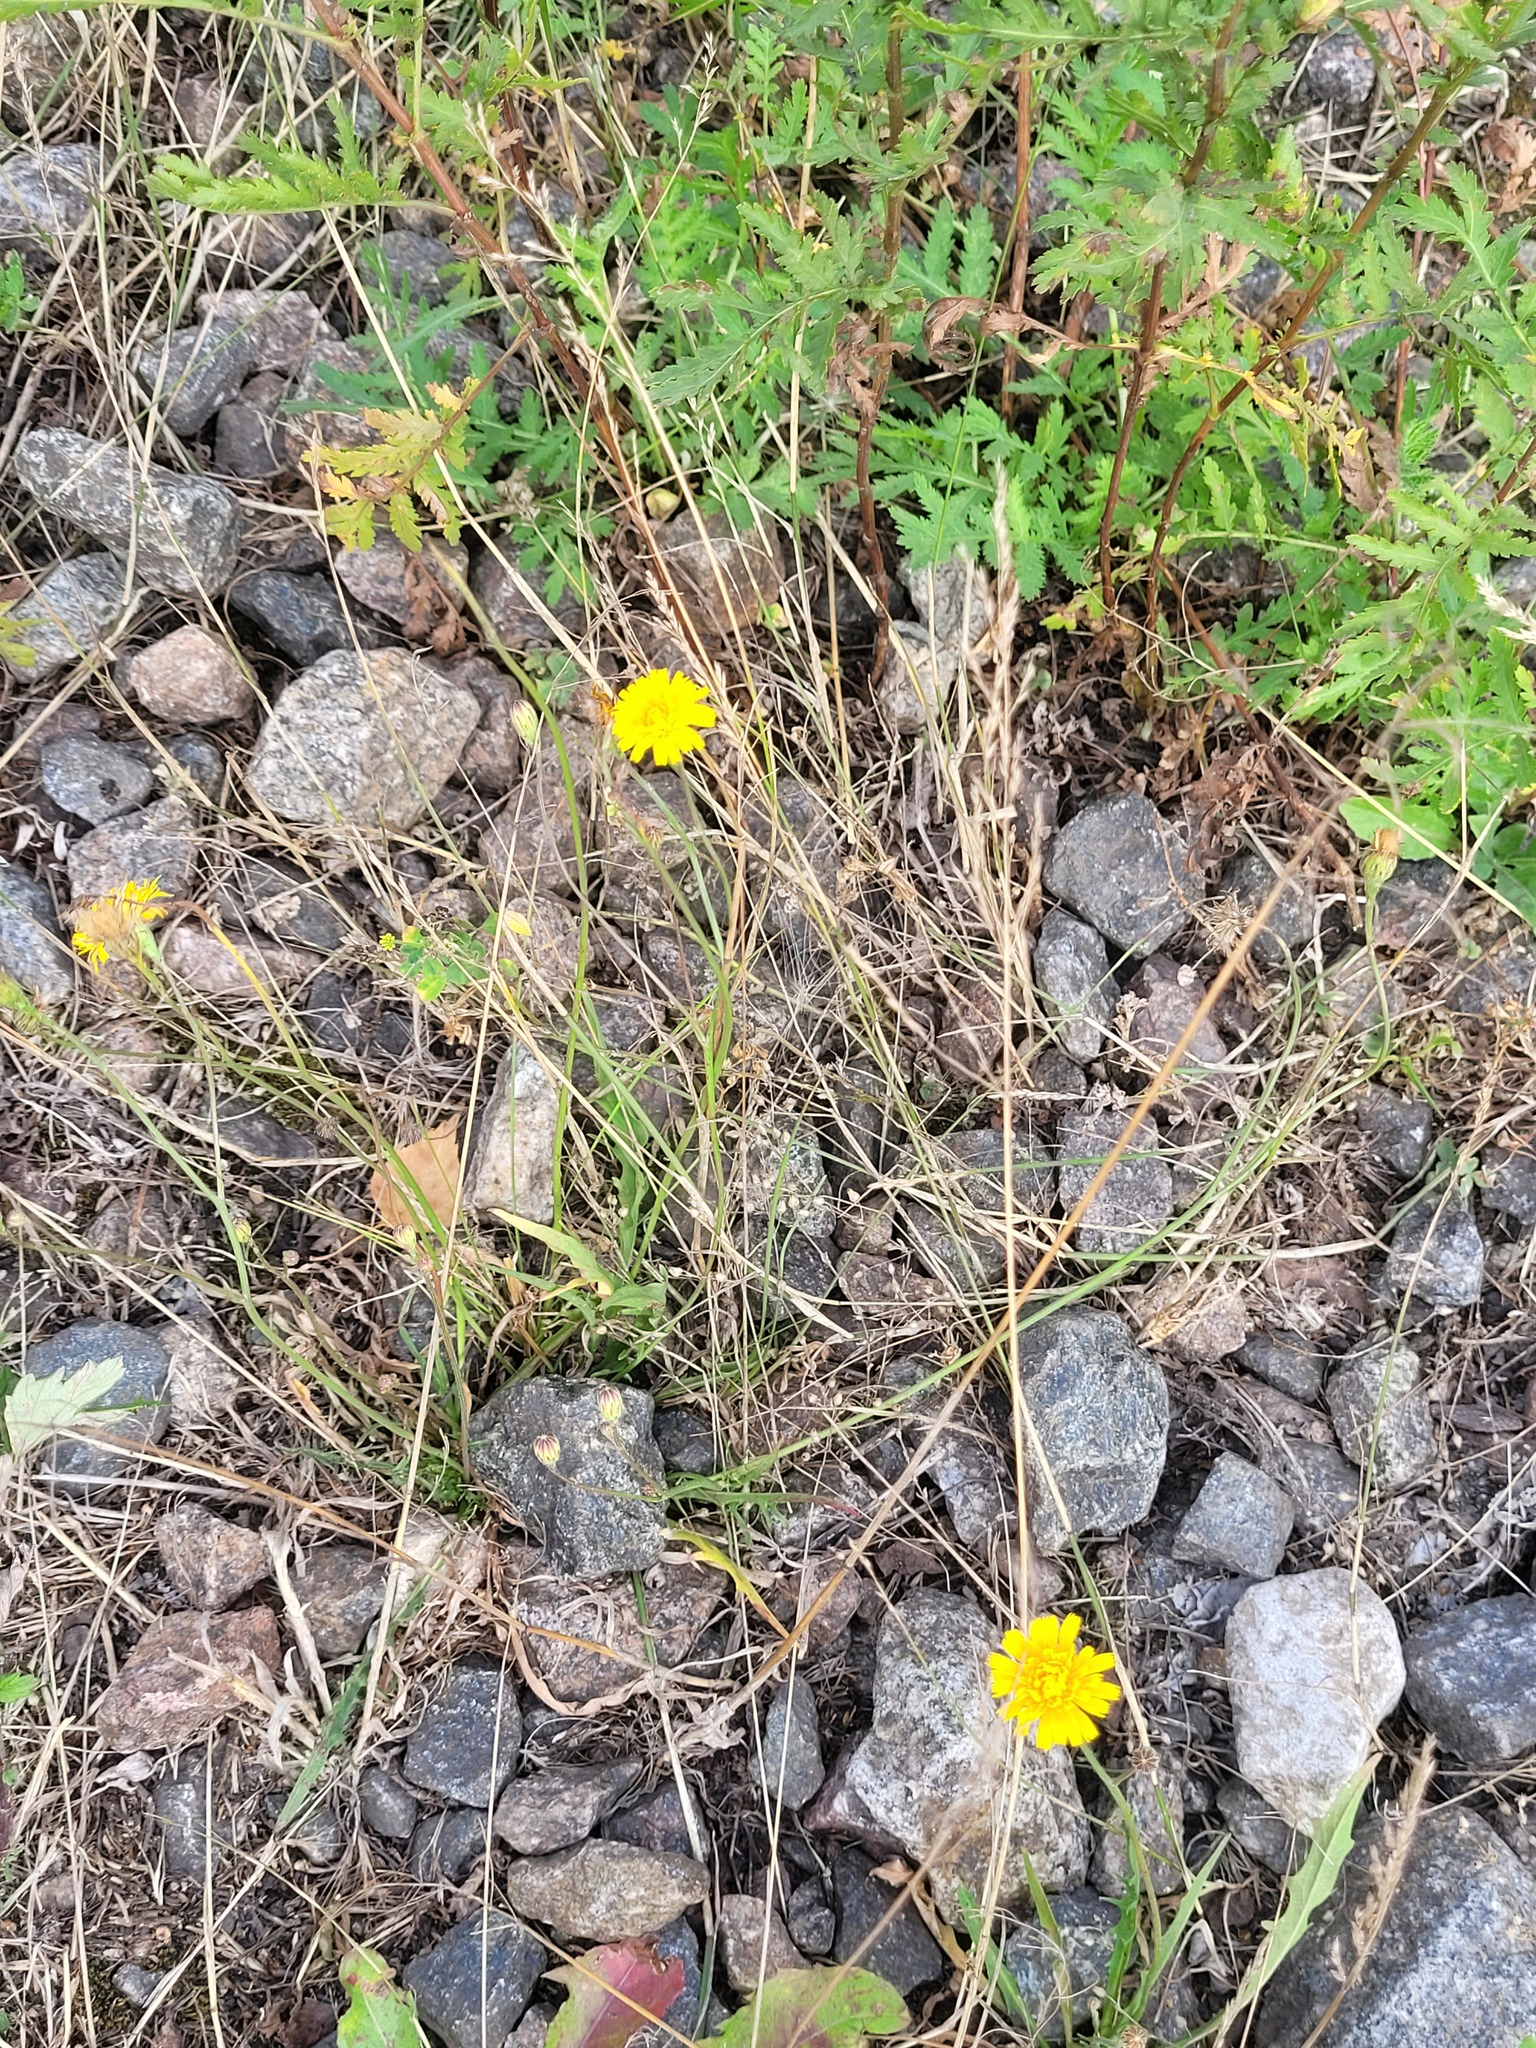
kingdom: Plantae
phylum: Tracheophyta
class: Magnoliopsida
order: Asterales
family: Asteraceae
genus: Scorzoneroides
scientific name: Scorzoneroides autumnalis
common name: Autumn hawkbit
